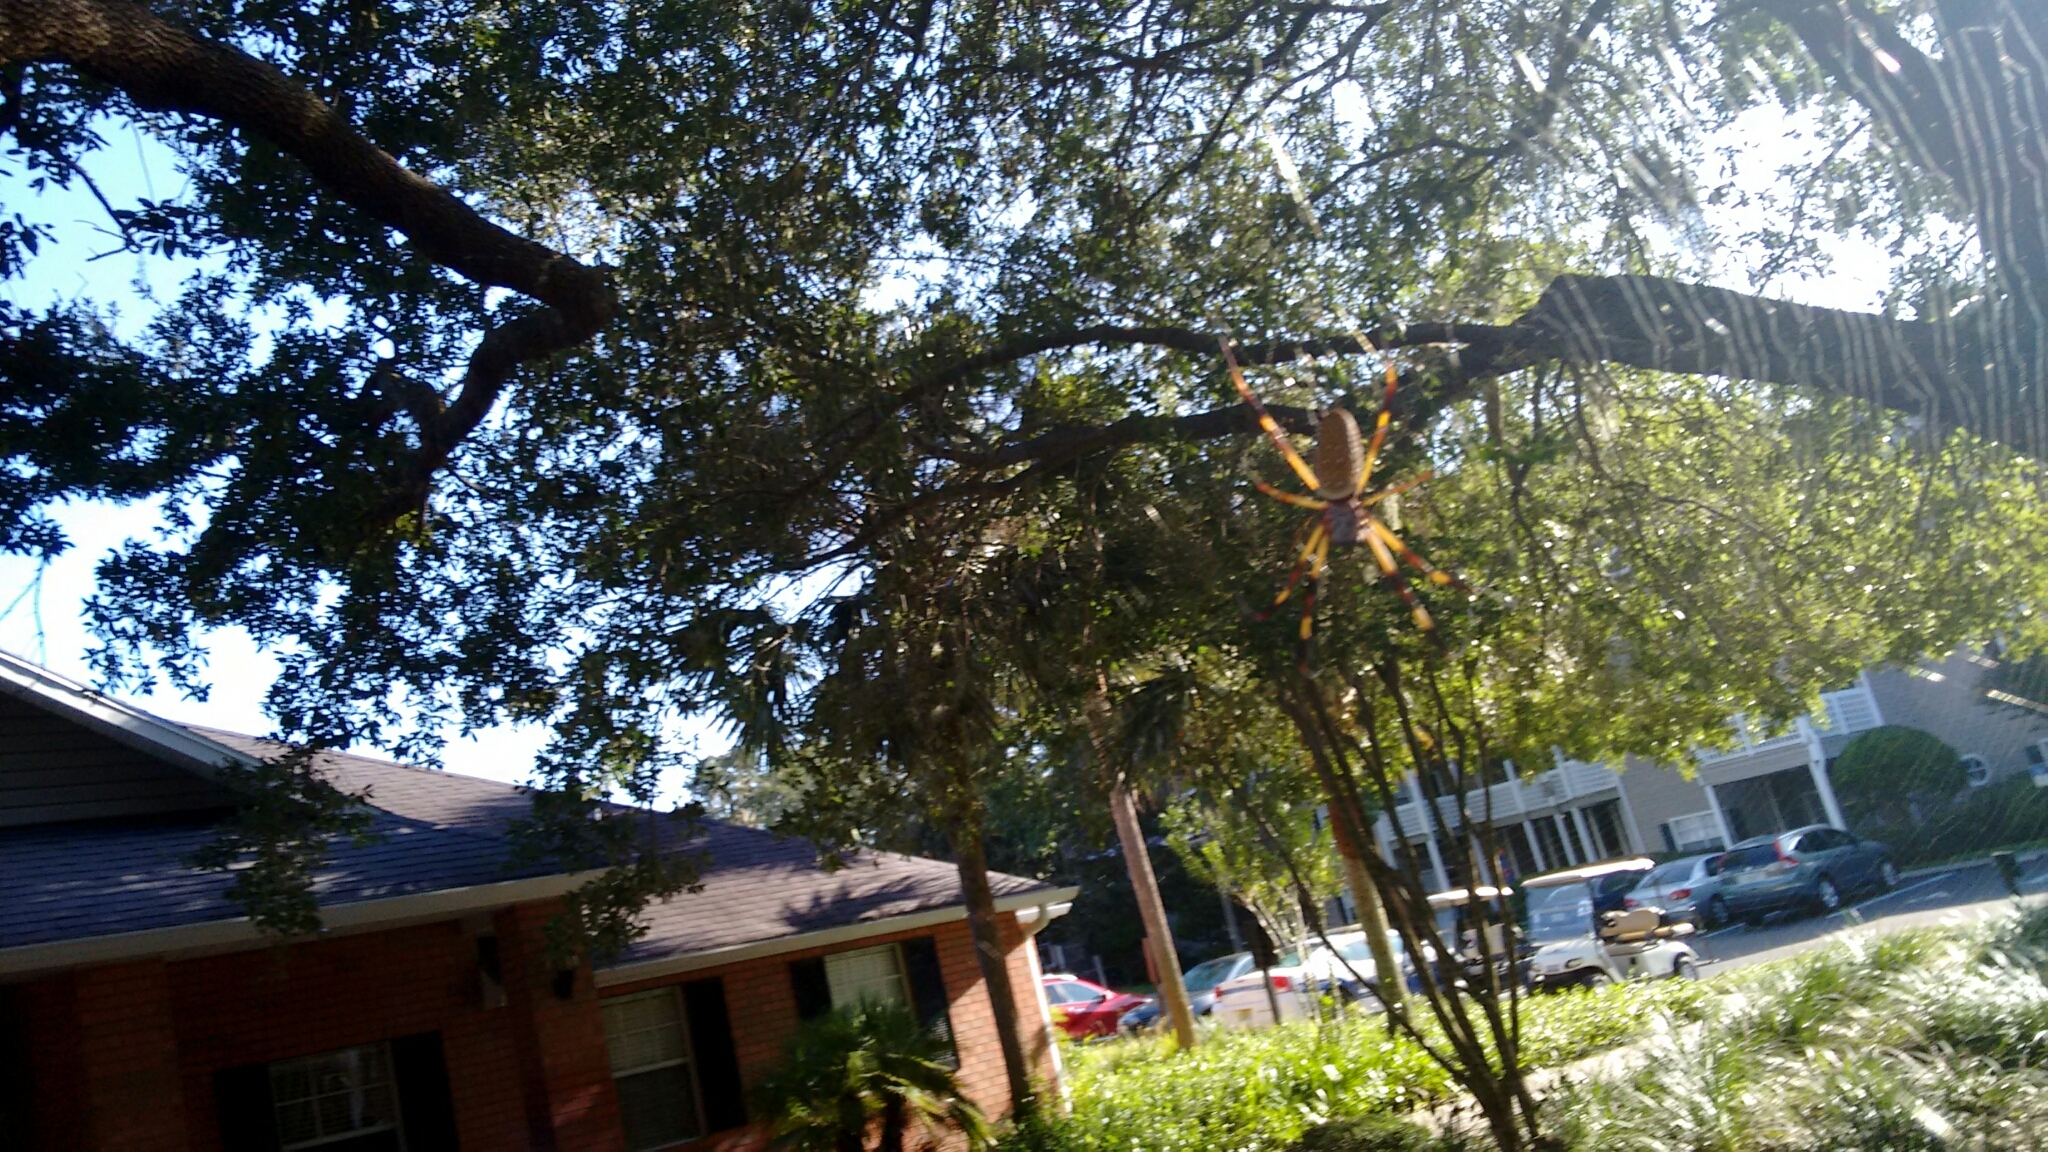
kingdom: Animalia
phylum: Arthropoda
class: Arachnida
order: Araneae
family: Araneidae
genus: Trichonephila
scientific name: Trichonephila clavipes
